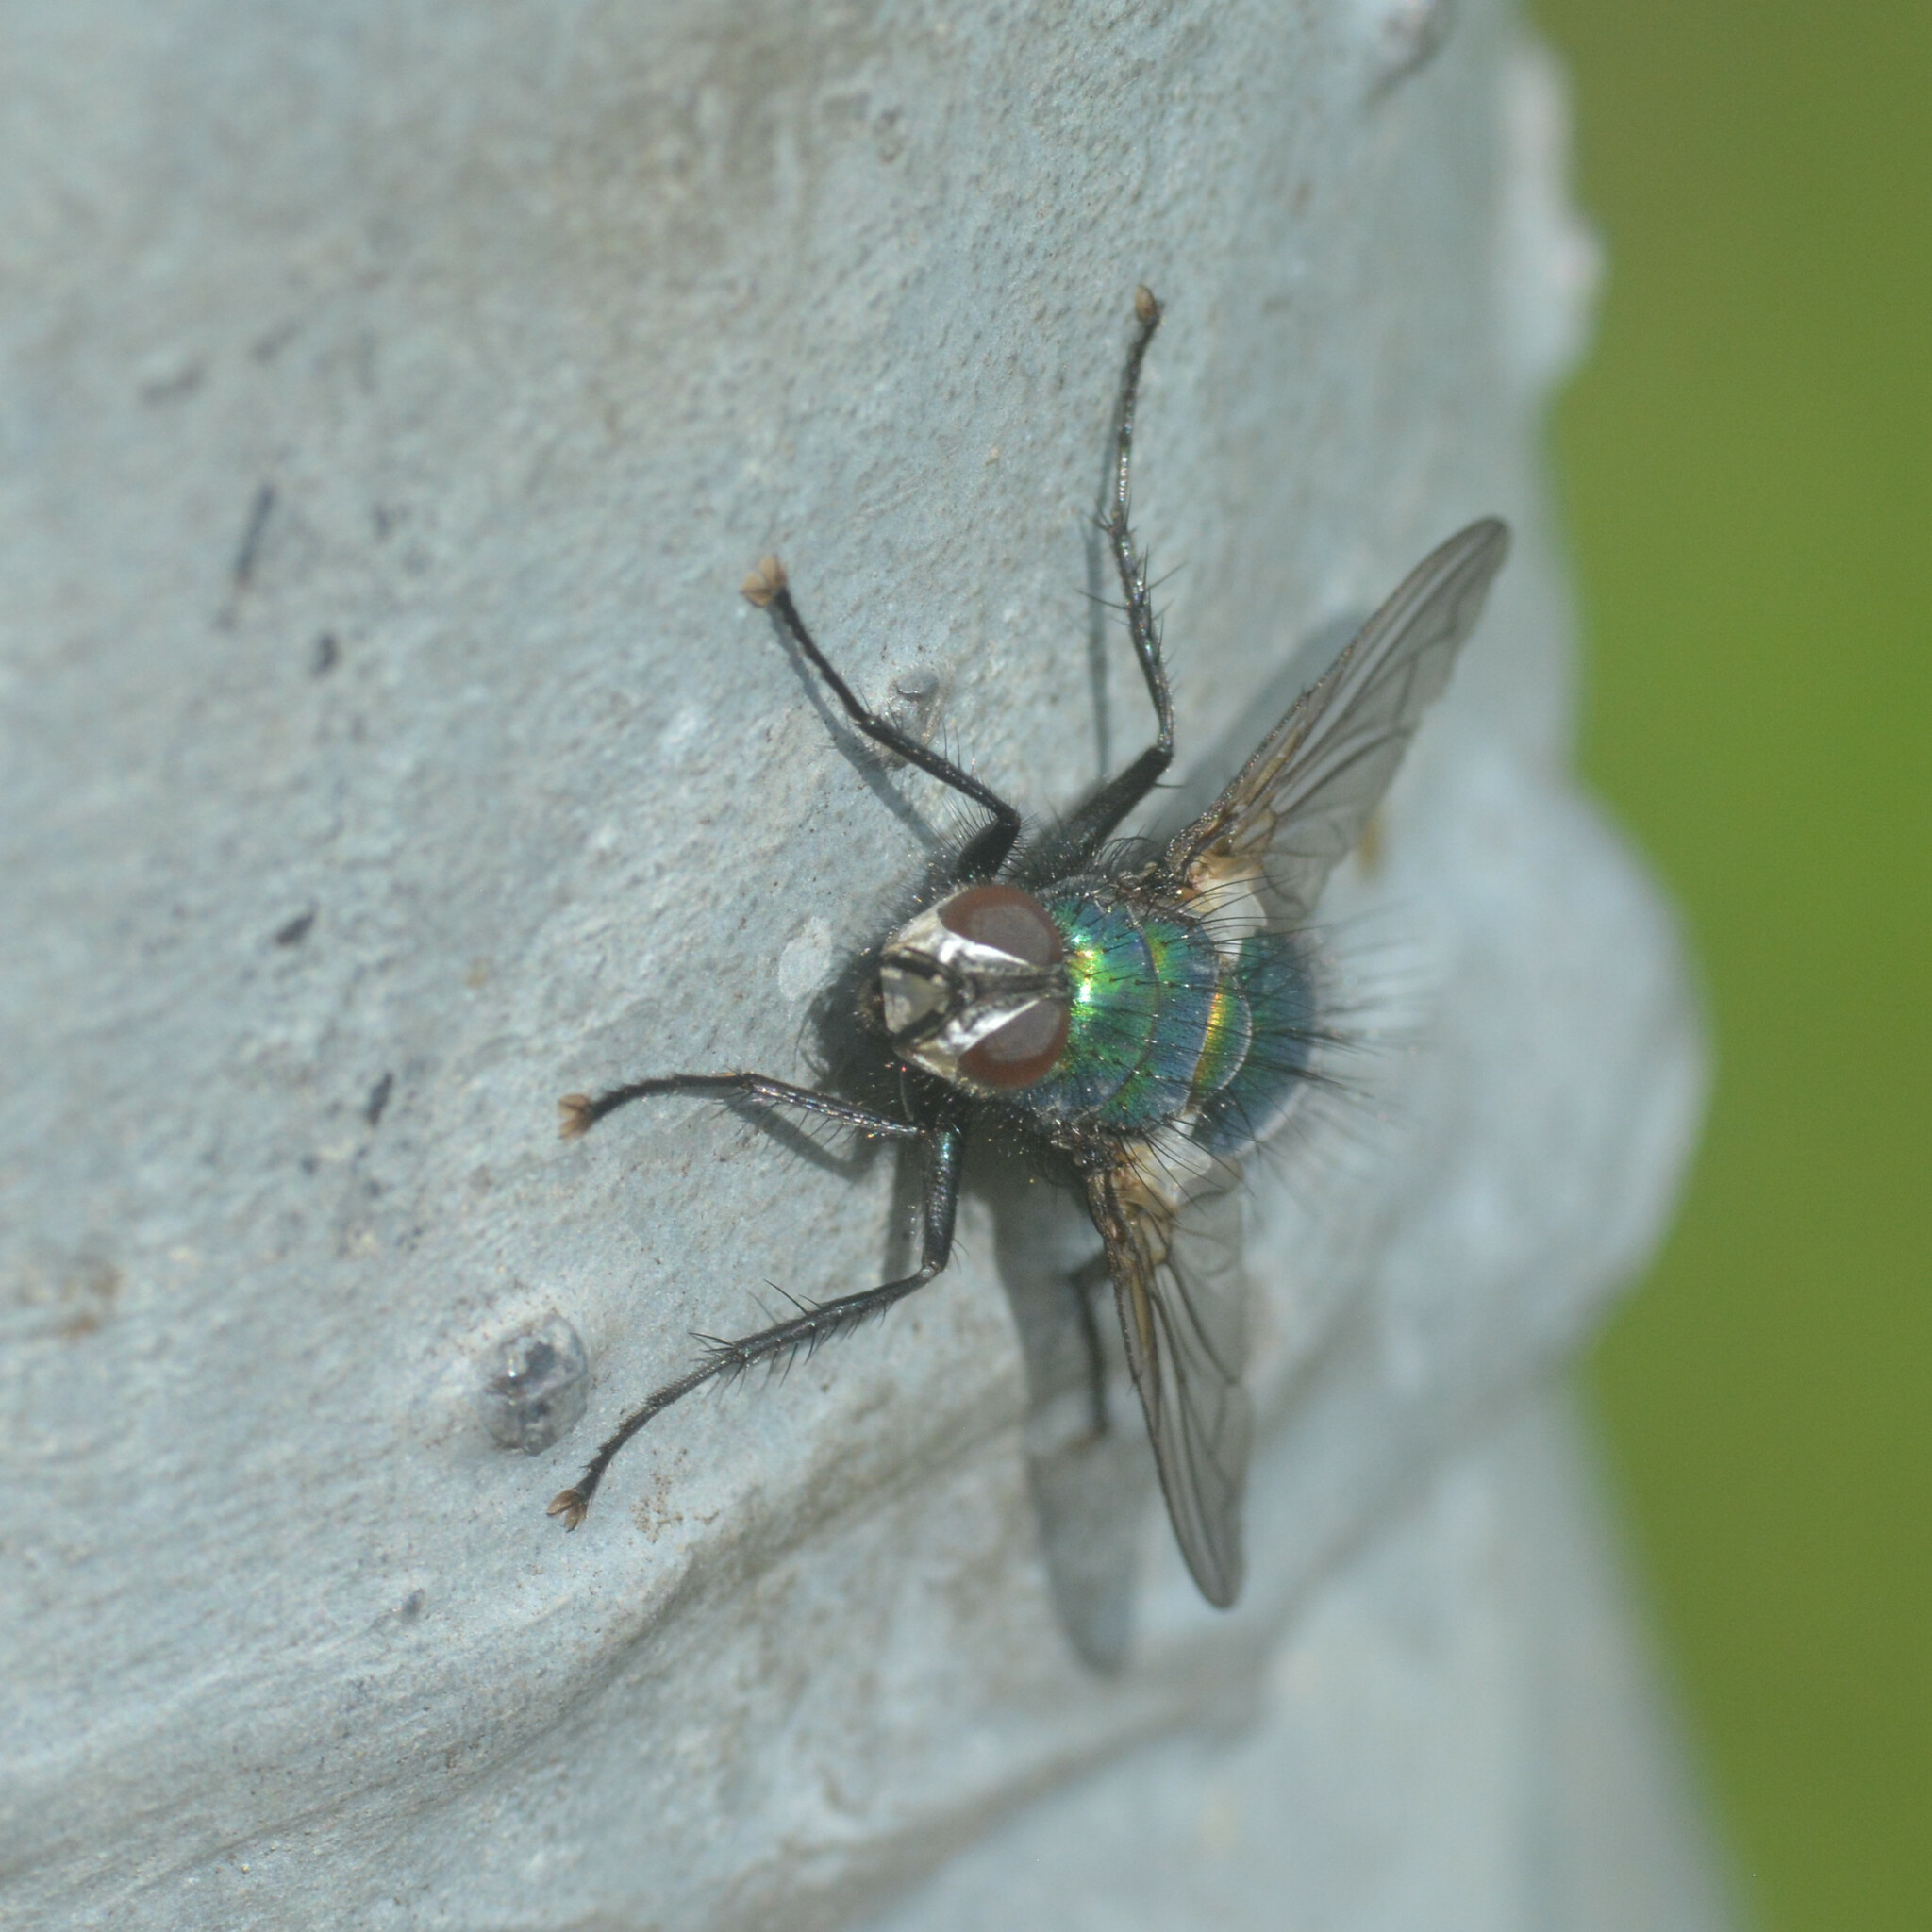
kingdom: Animalia
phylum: Arthropoda
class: Insecta
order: Diptera
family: Tachinidae
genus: Gymnocheta
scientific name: Gymnocheta viridis
